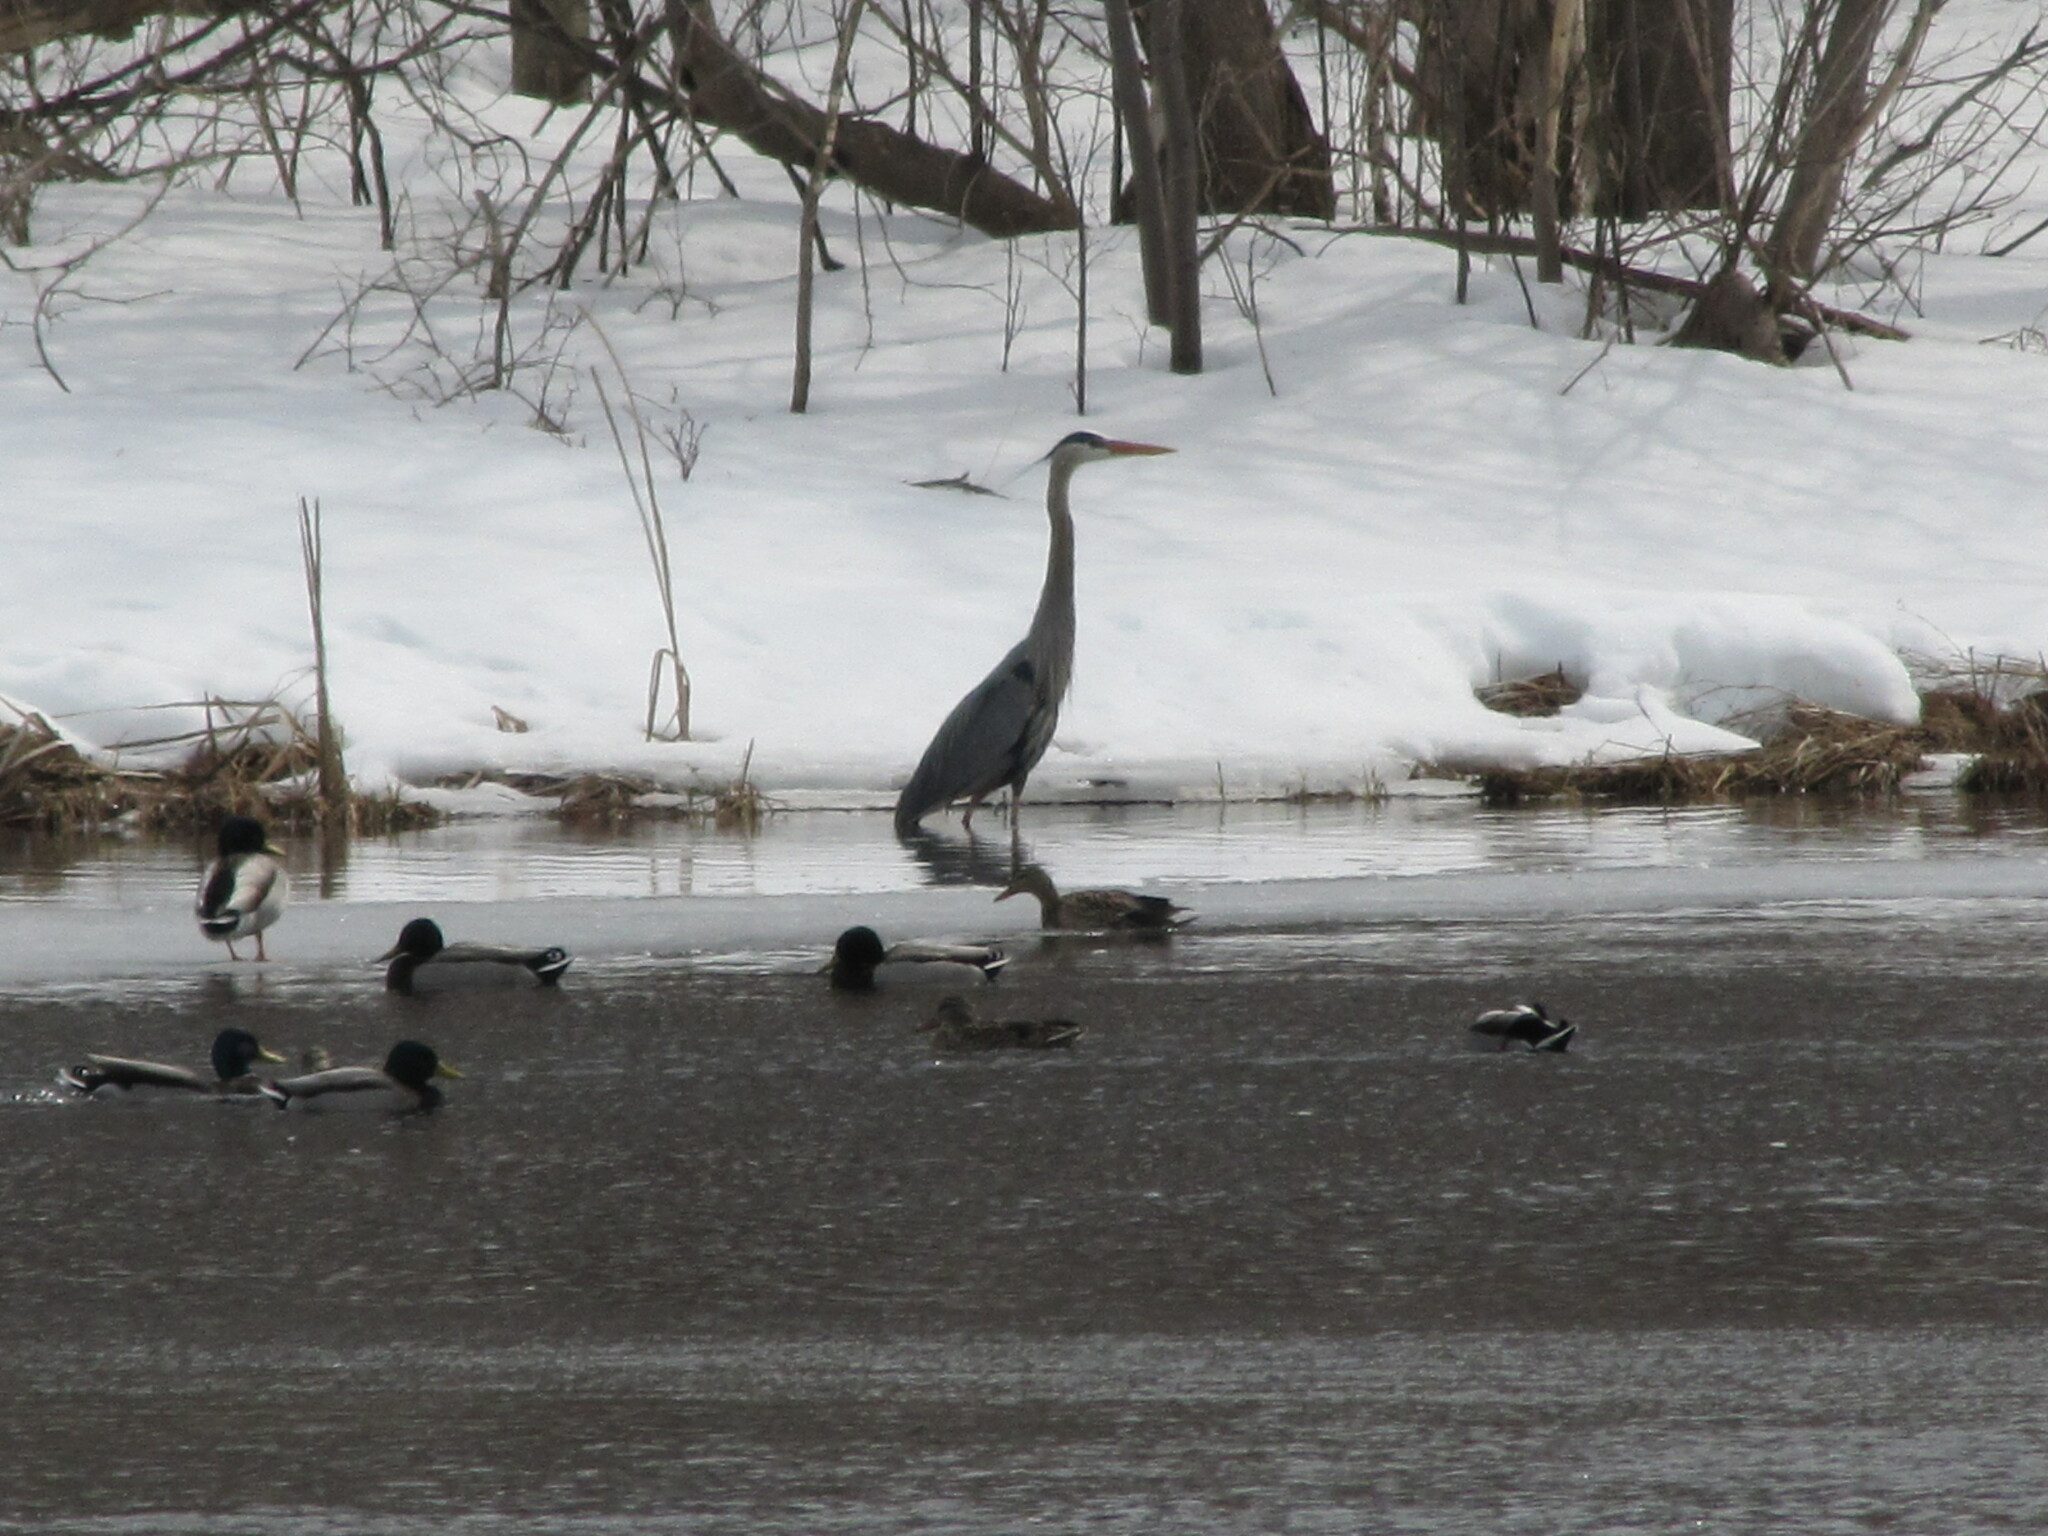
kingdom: Animalia
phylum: Chordata
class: Aves
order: Pelecaniformes
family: Ardeidae
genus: Ardea
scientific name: Ardea herodias
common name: Great blue heron
